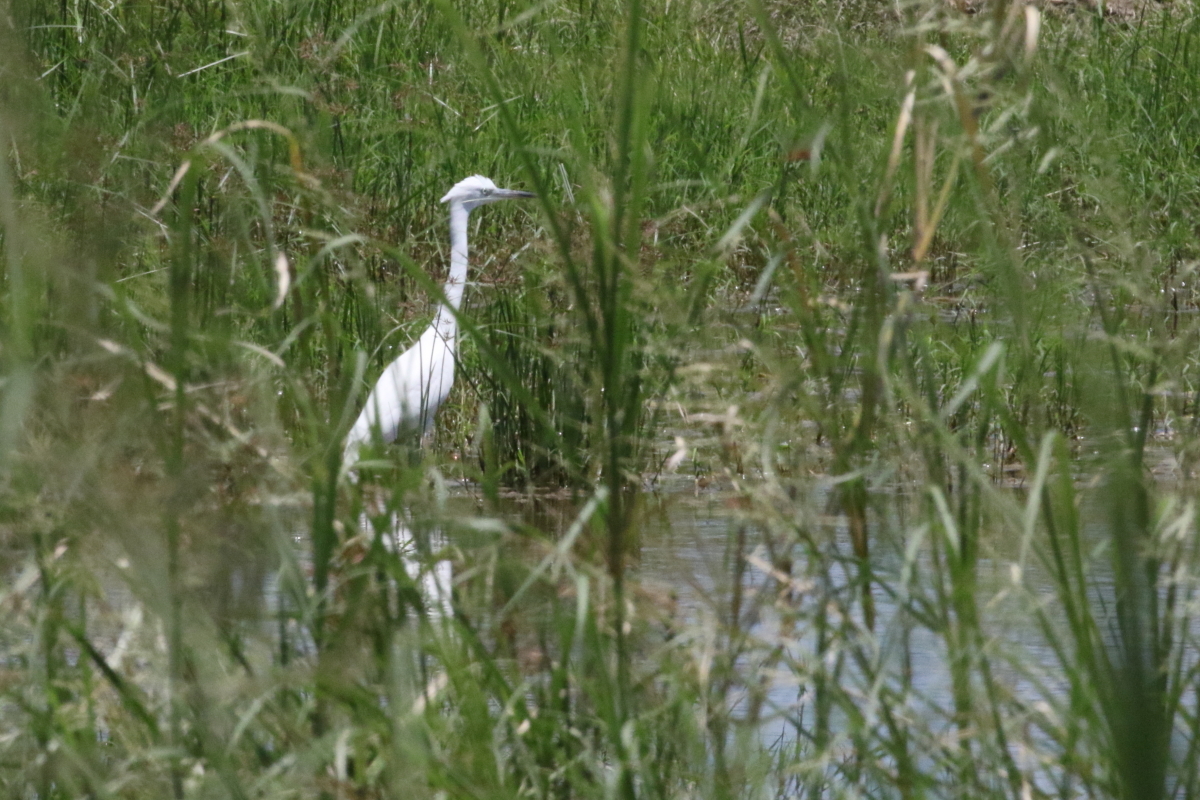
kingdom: Animalia
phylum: Chordata
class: Aves
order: Pelecaniformes
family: Ardeidae
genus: Egretta
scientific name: Egretta garzetta
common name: Little egret
